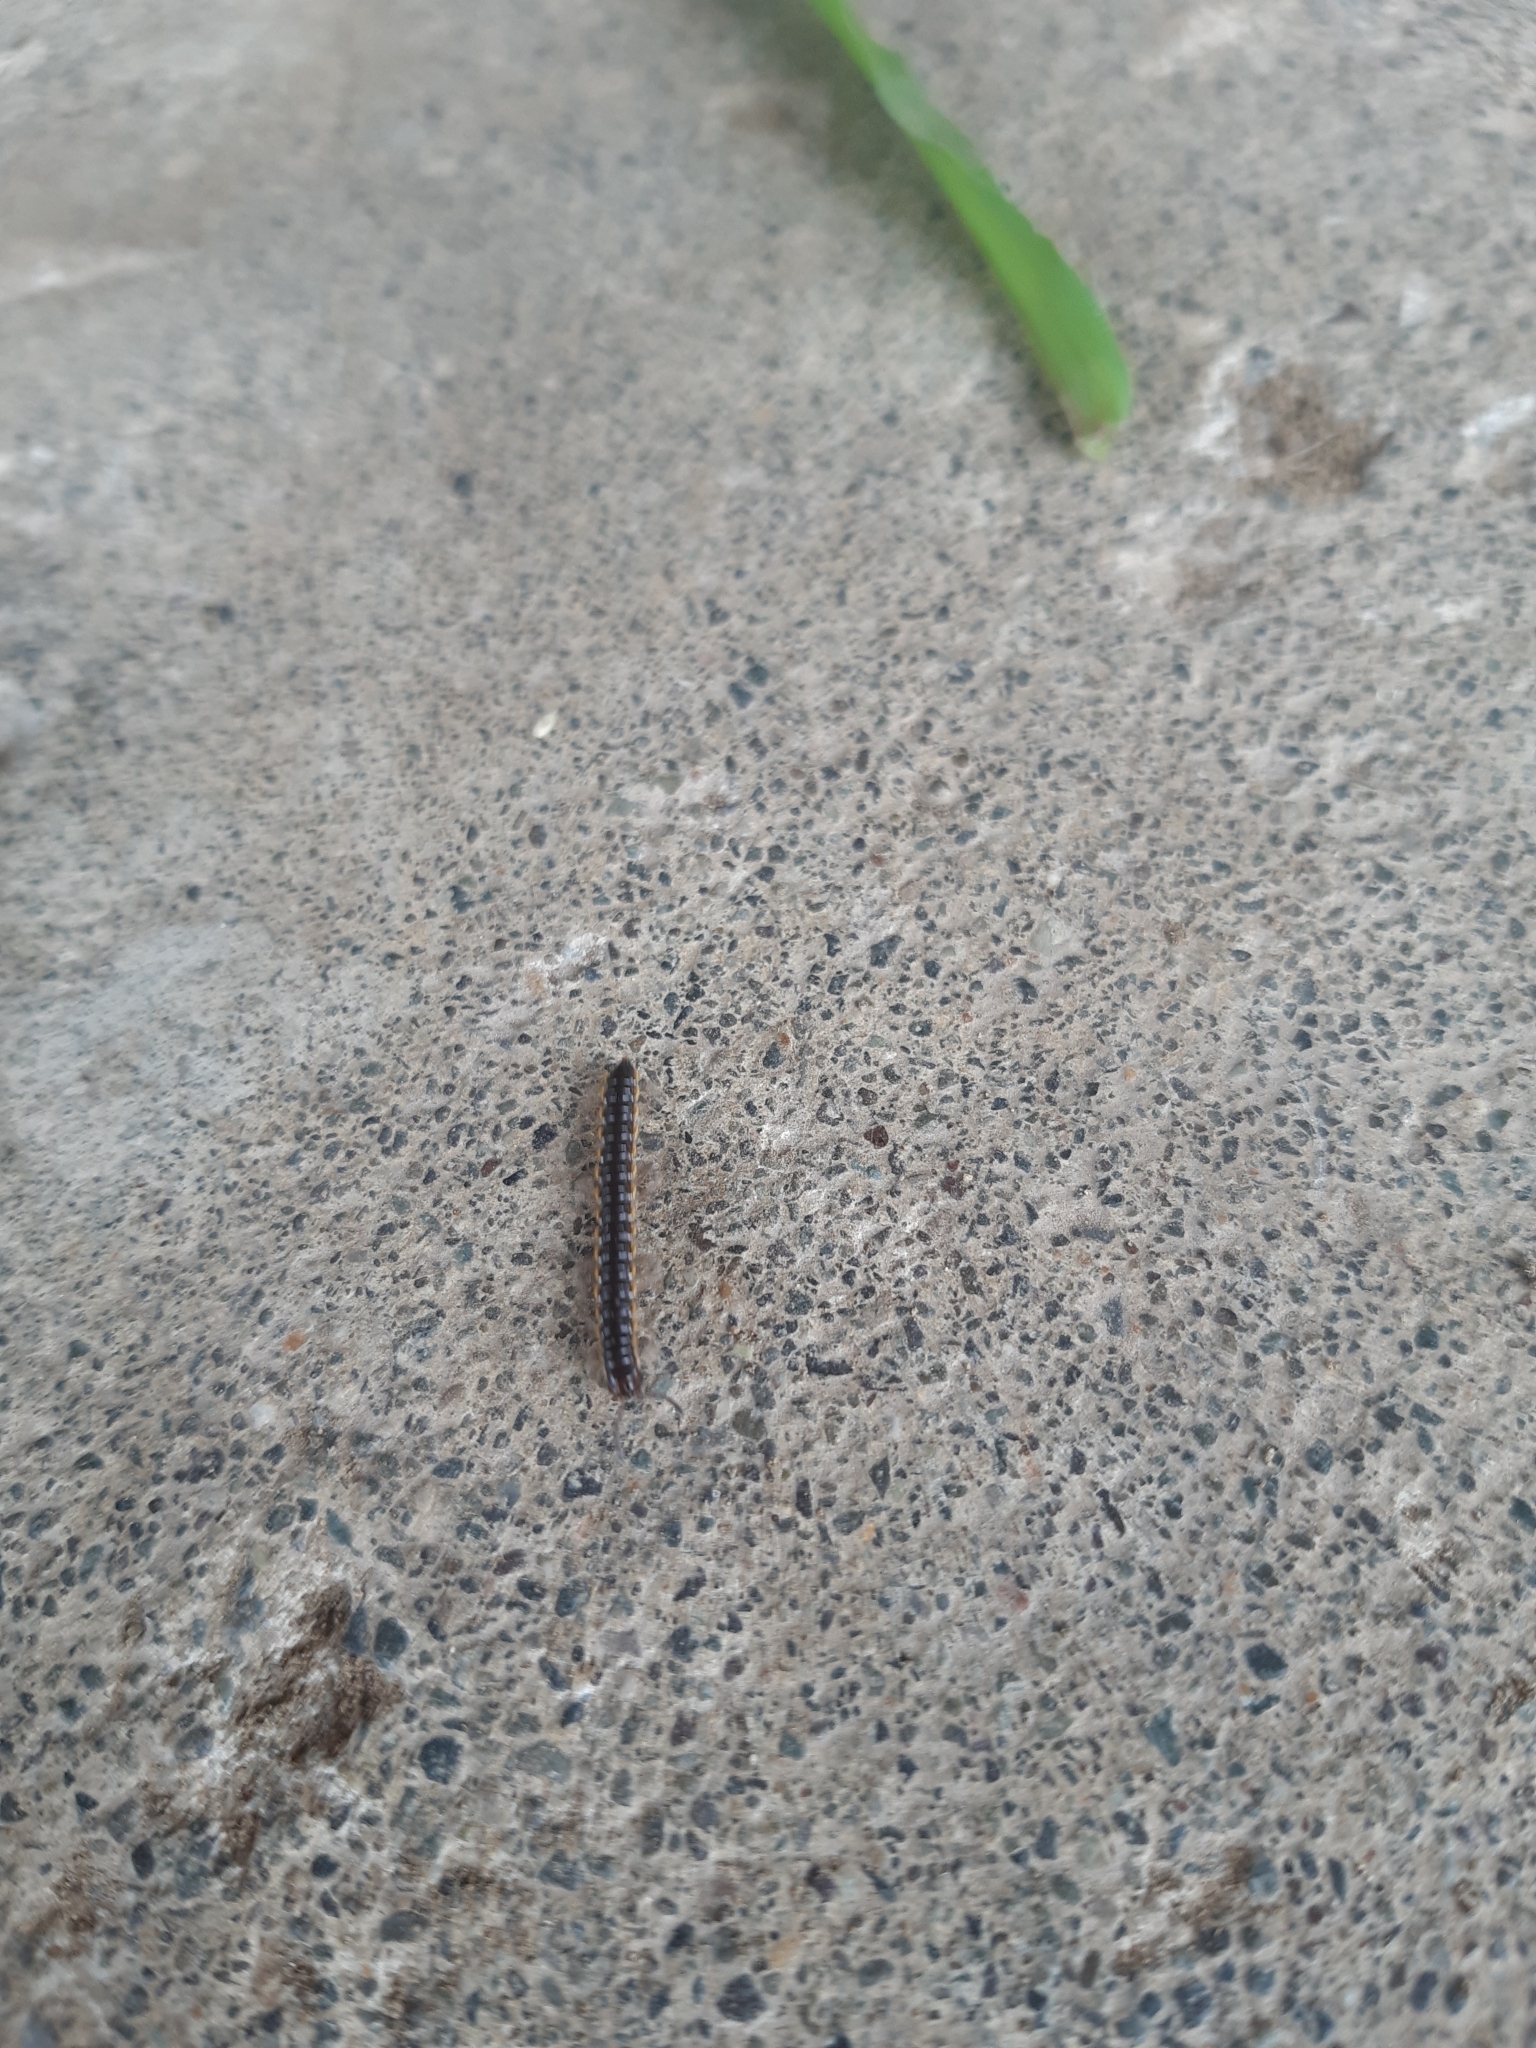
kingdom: Animalia
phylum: Arthropoda
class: Diplopoda
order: Polydesmida
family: Paradoxosomatidae
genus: Orthomorpha
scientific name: Orthomorpha coarctata
